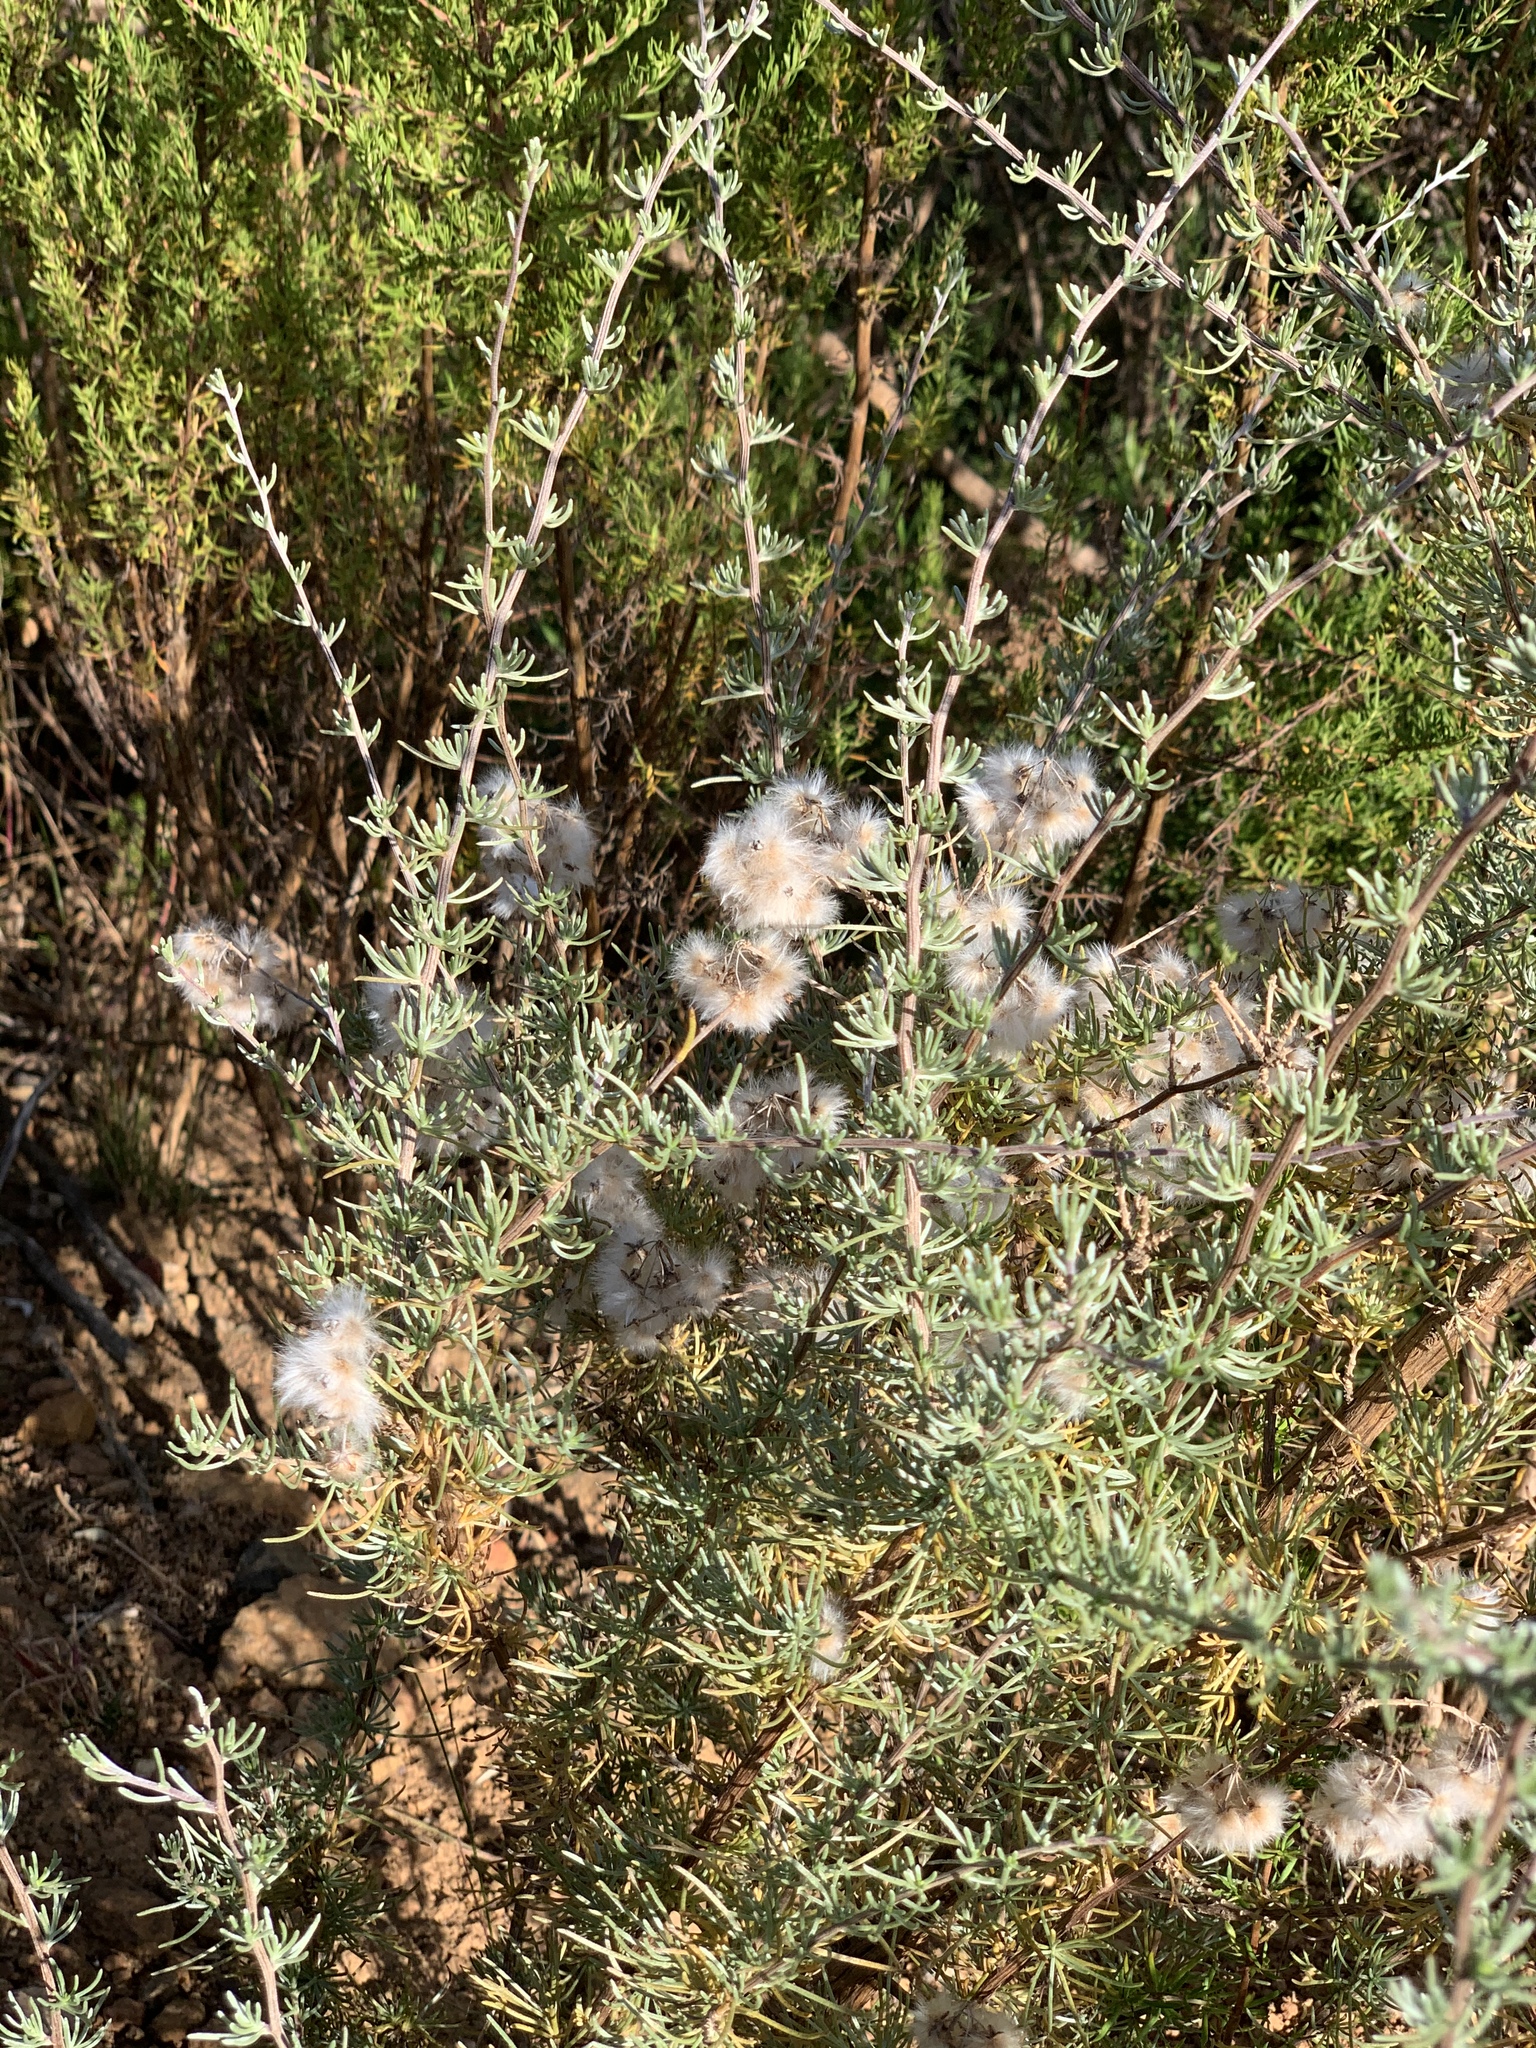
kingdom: Plantae
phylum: Tracheophyta
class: Magnoliopsida
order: Asterales
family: Asteraceae
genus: Eriocephalus
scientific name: Eriocephalus africanus
